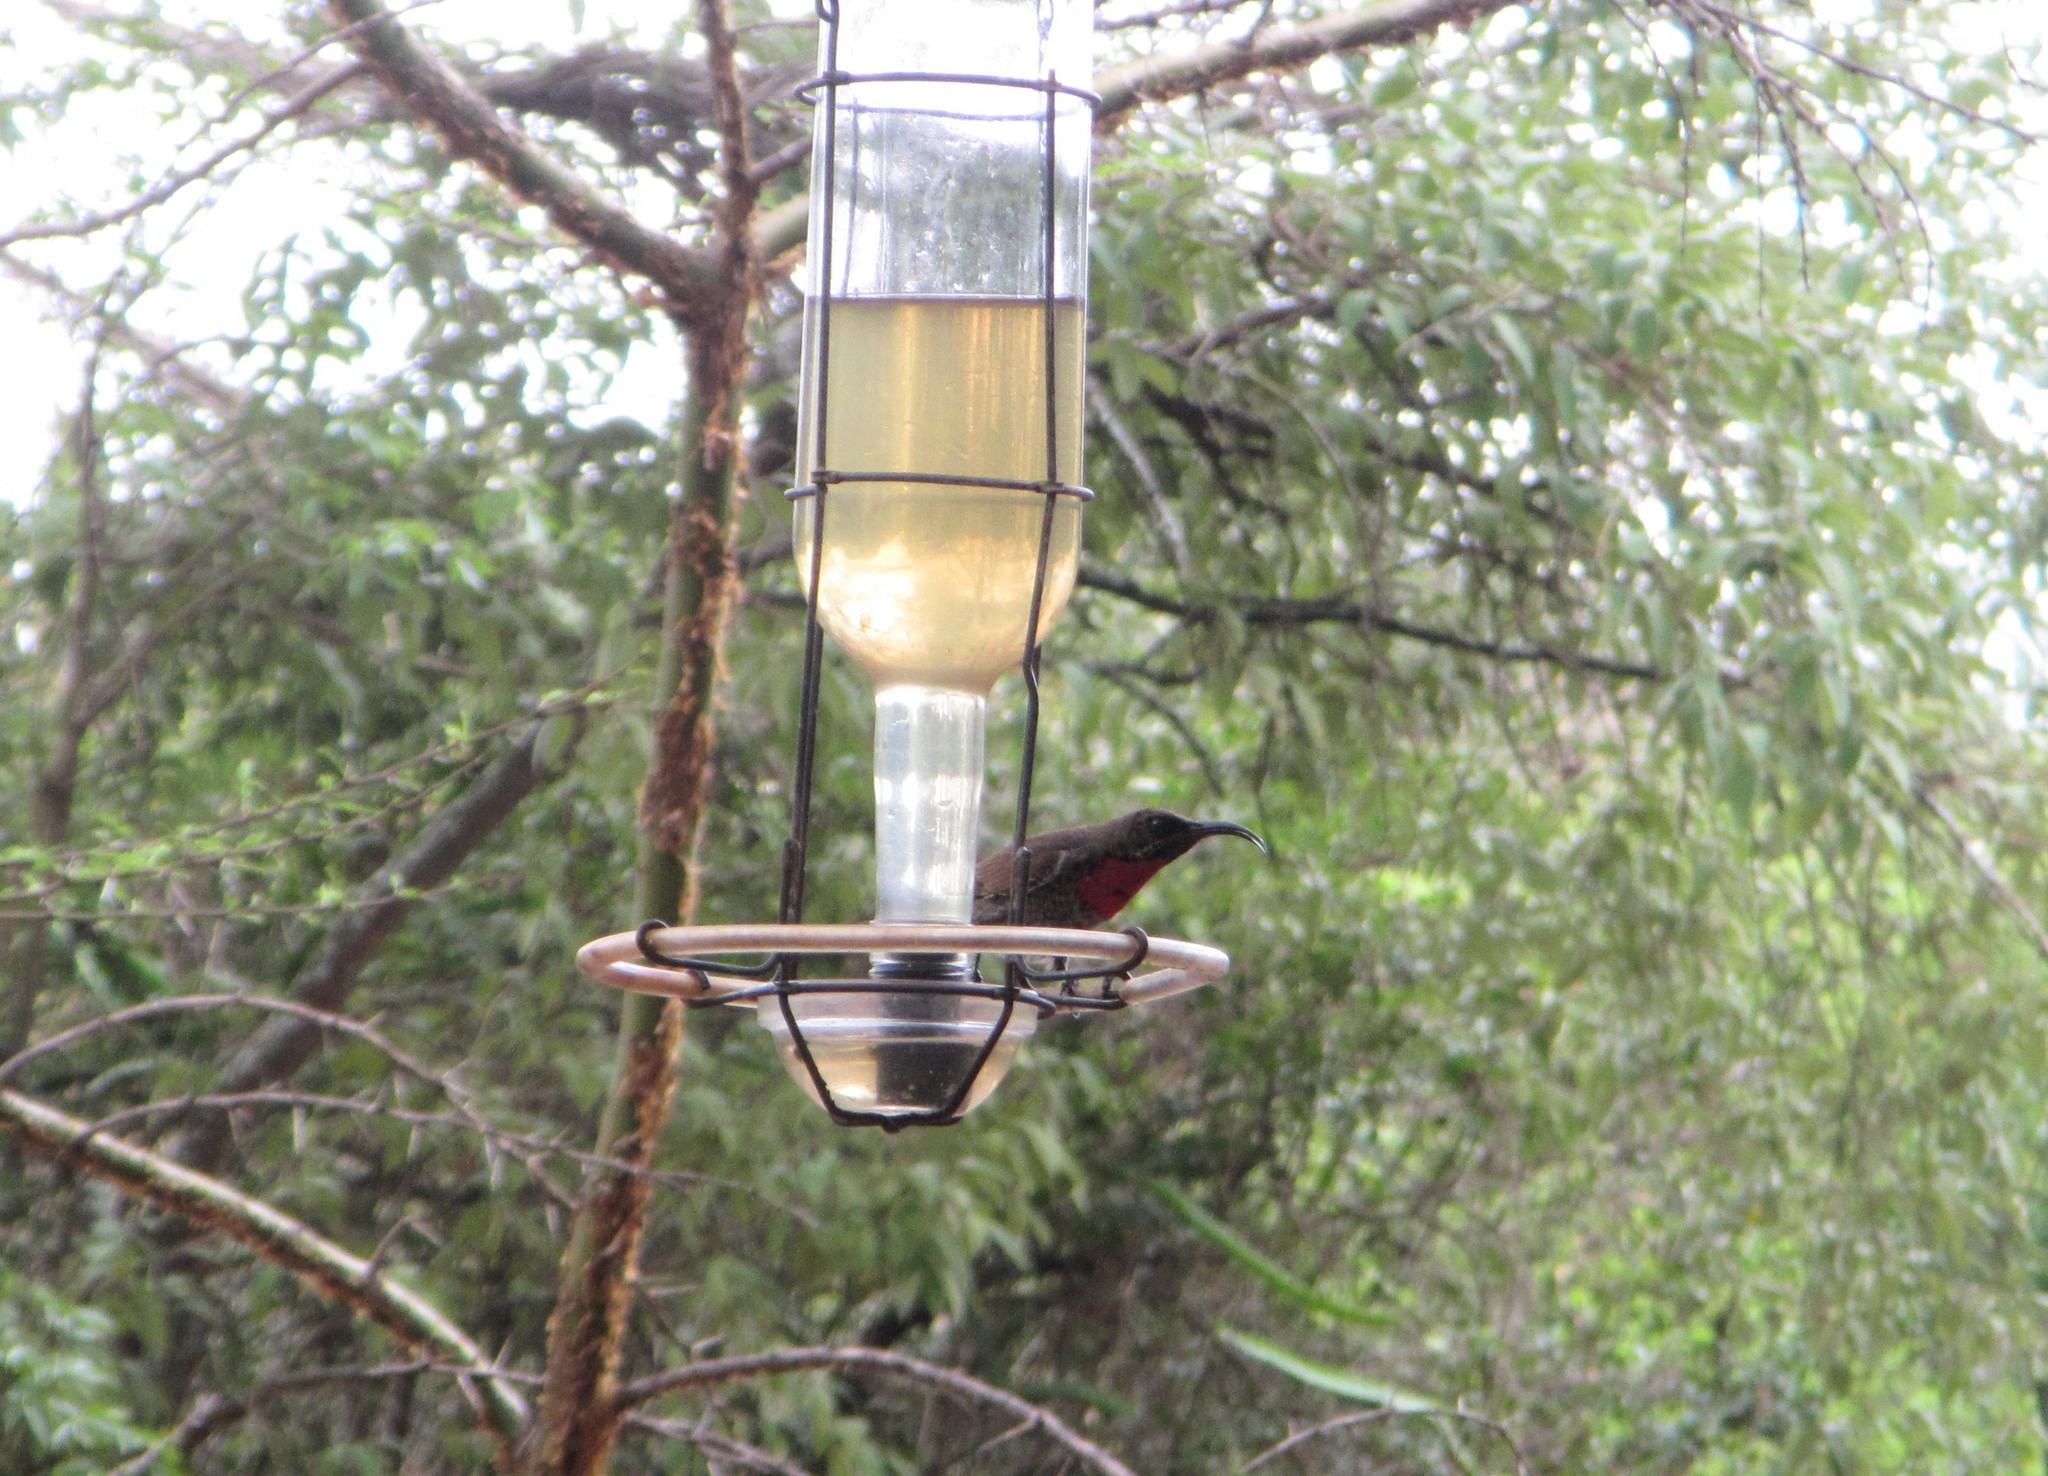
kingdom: Animalia
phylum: Chordata
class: Aves
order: Passeriformes
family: Nectariniidae
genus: Chalcomitra
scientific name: Chalcomitra senegalensis
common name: Scarlet-chested sunbird
